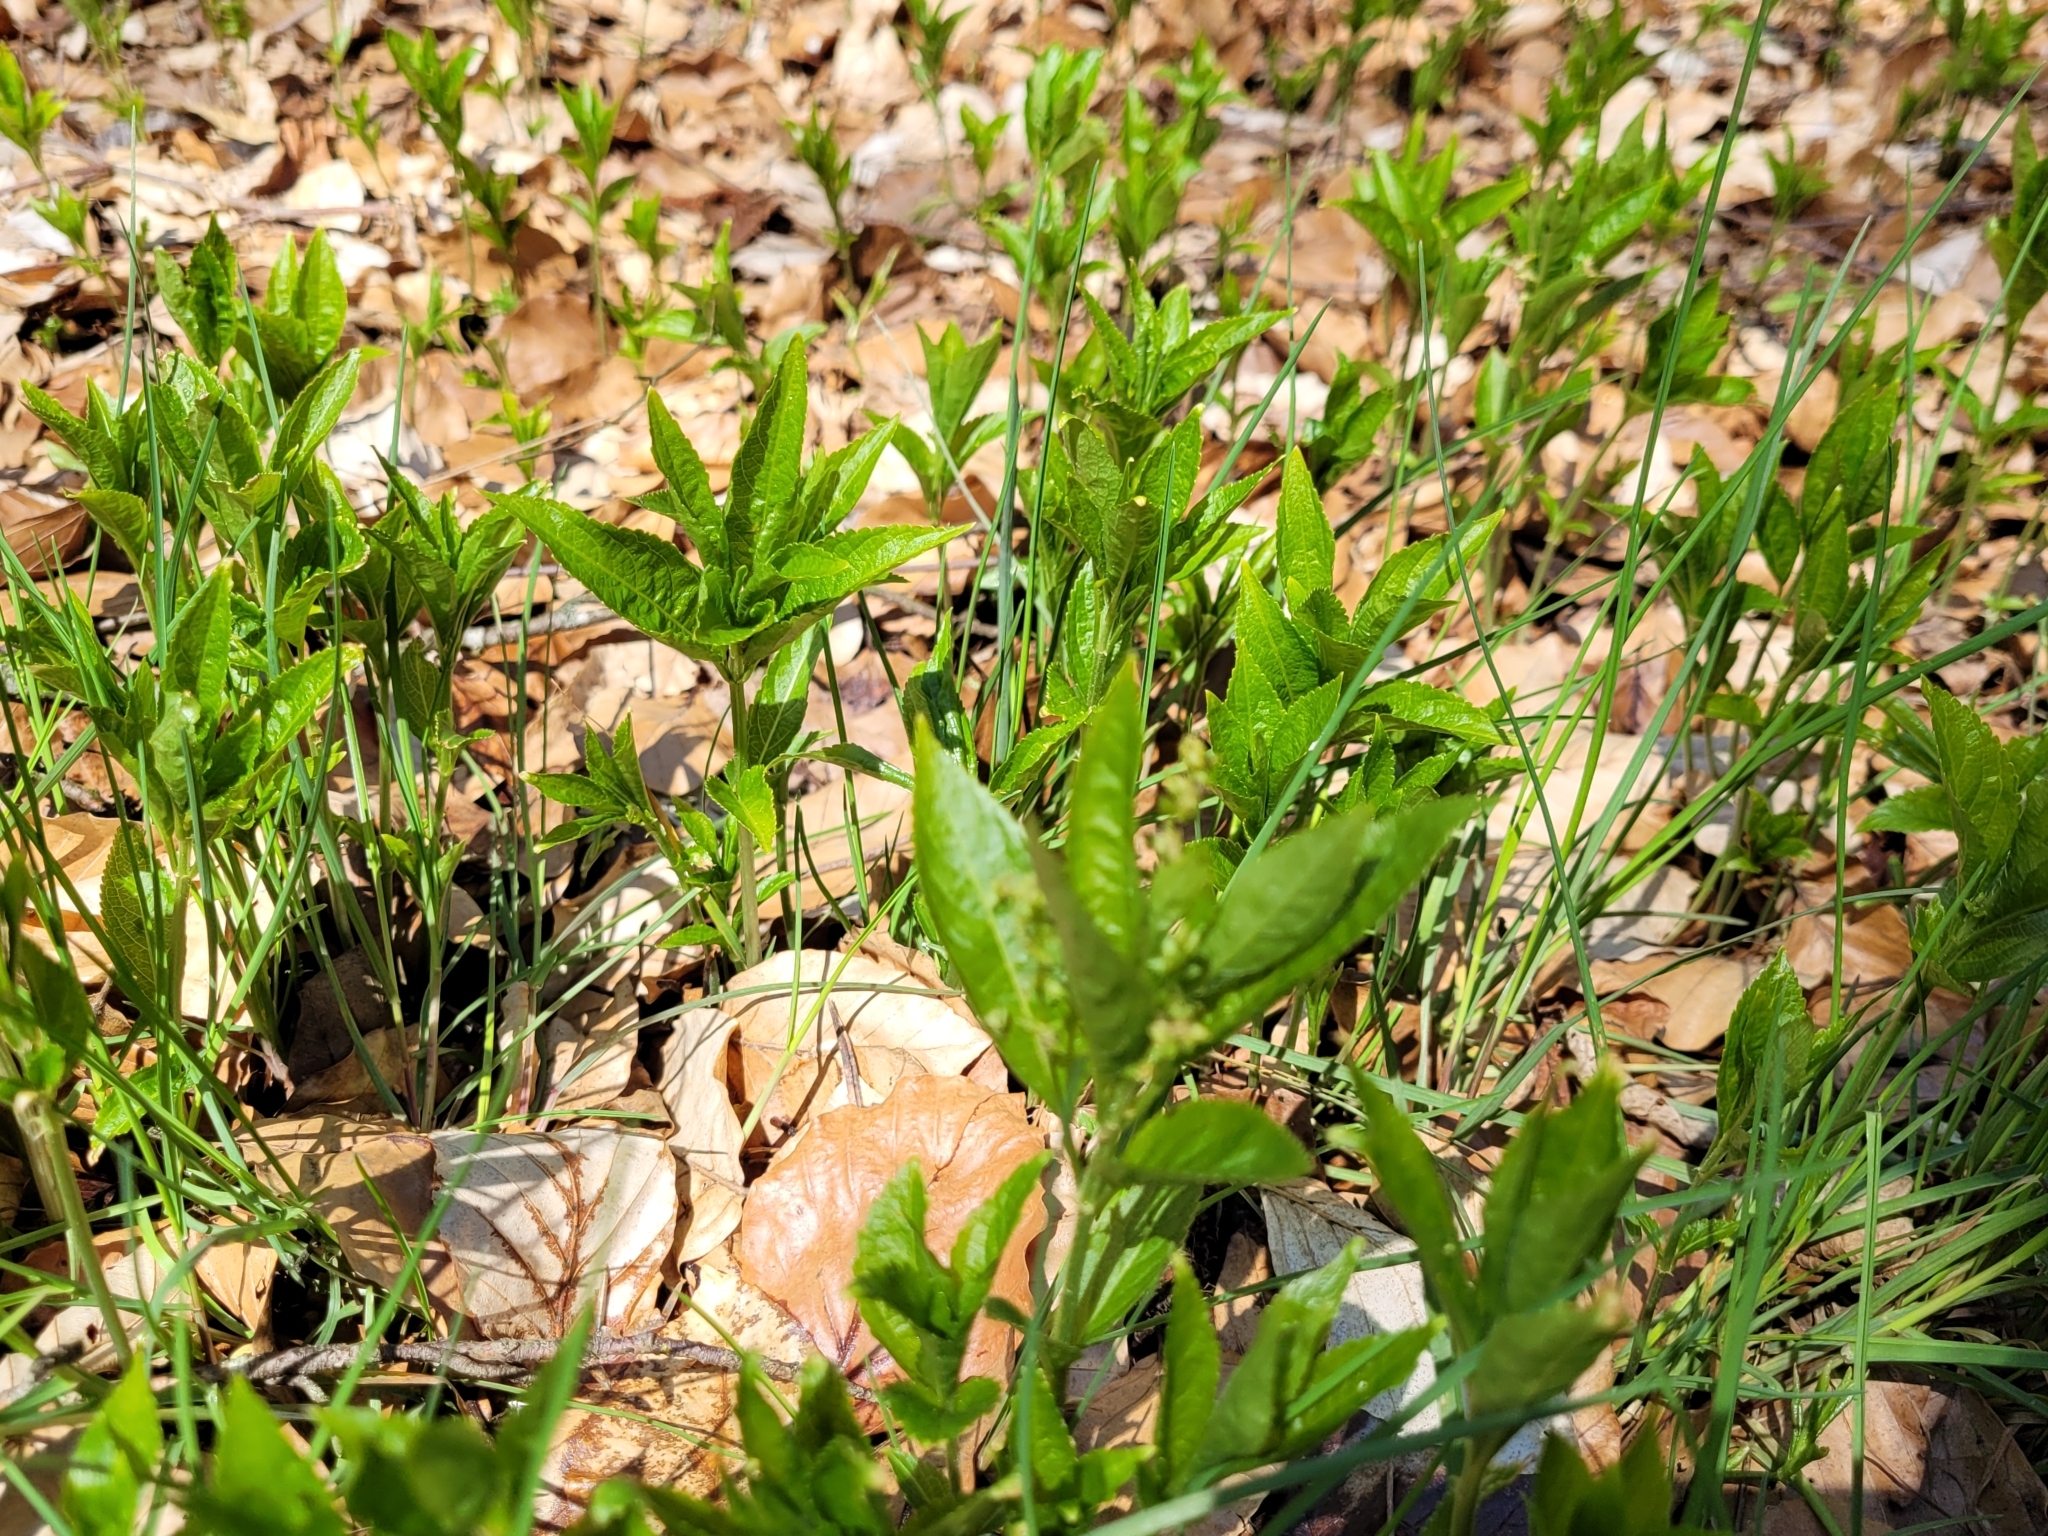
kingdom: Plantae
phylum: Tracheophyta
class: Magnoliopsida
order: Malpighiales
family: Euphorbiaceae
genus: Mercurialis
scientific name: Mercurialis perennis
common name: Dog mercury
